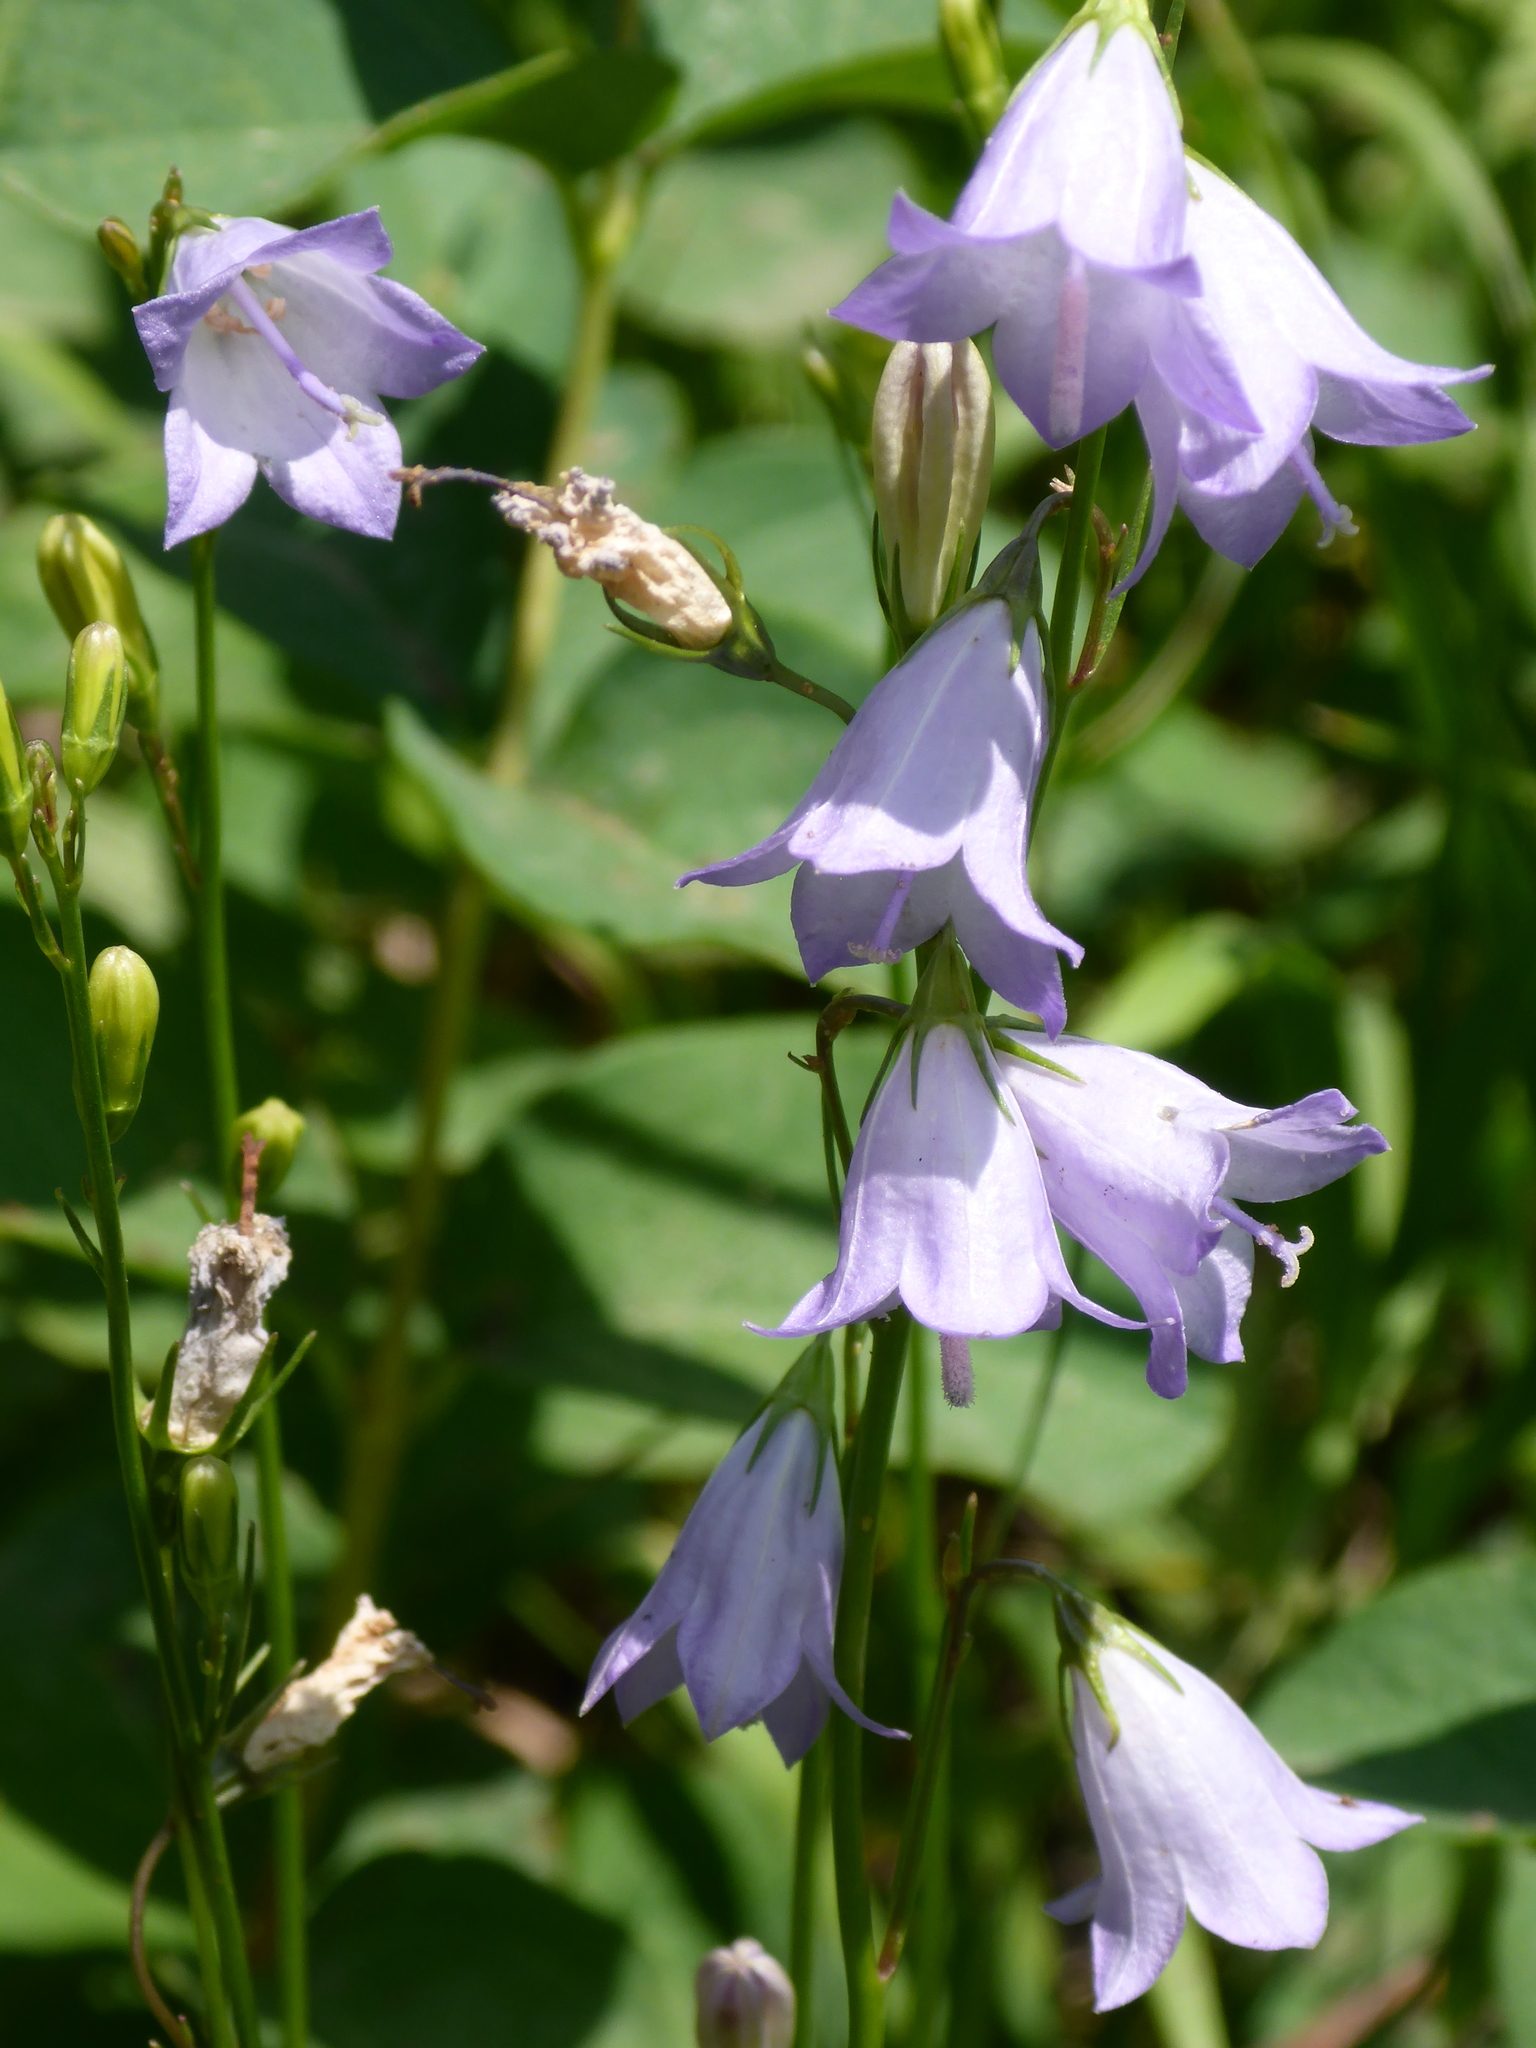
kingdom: Plantae
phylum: Tracheophyta
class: Magnoliopsida
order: Asterales
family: Campanulaceae
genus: Campanula
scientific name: Campanula alaskana
